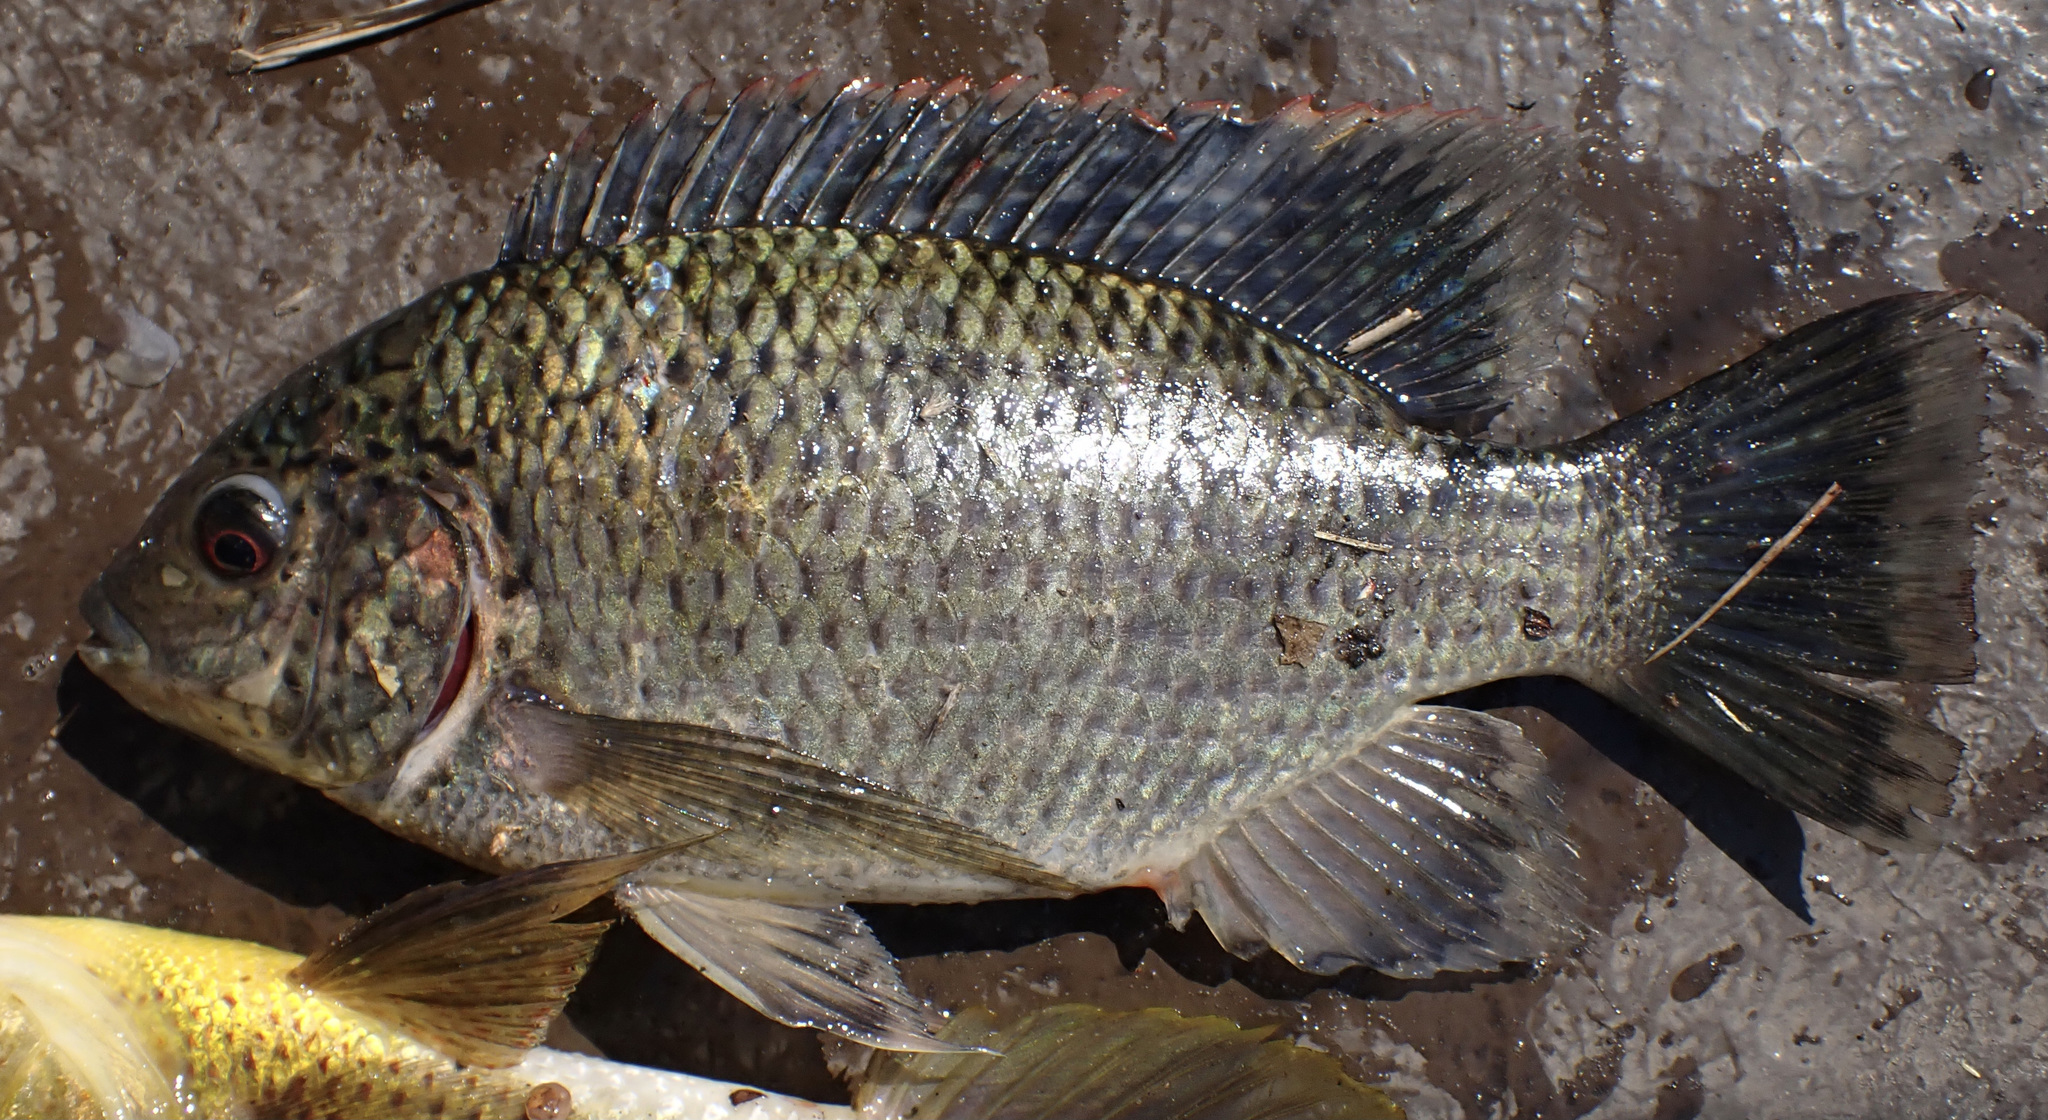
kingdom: Animalia
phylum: Chordata
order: Perciformes
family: Cichlidae
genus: Oreochromis
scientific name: Oreochromis macrochir
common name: Greenhead tilapia
